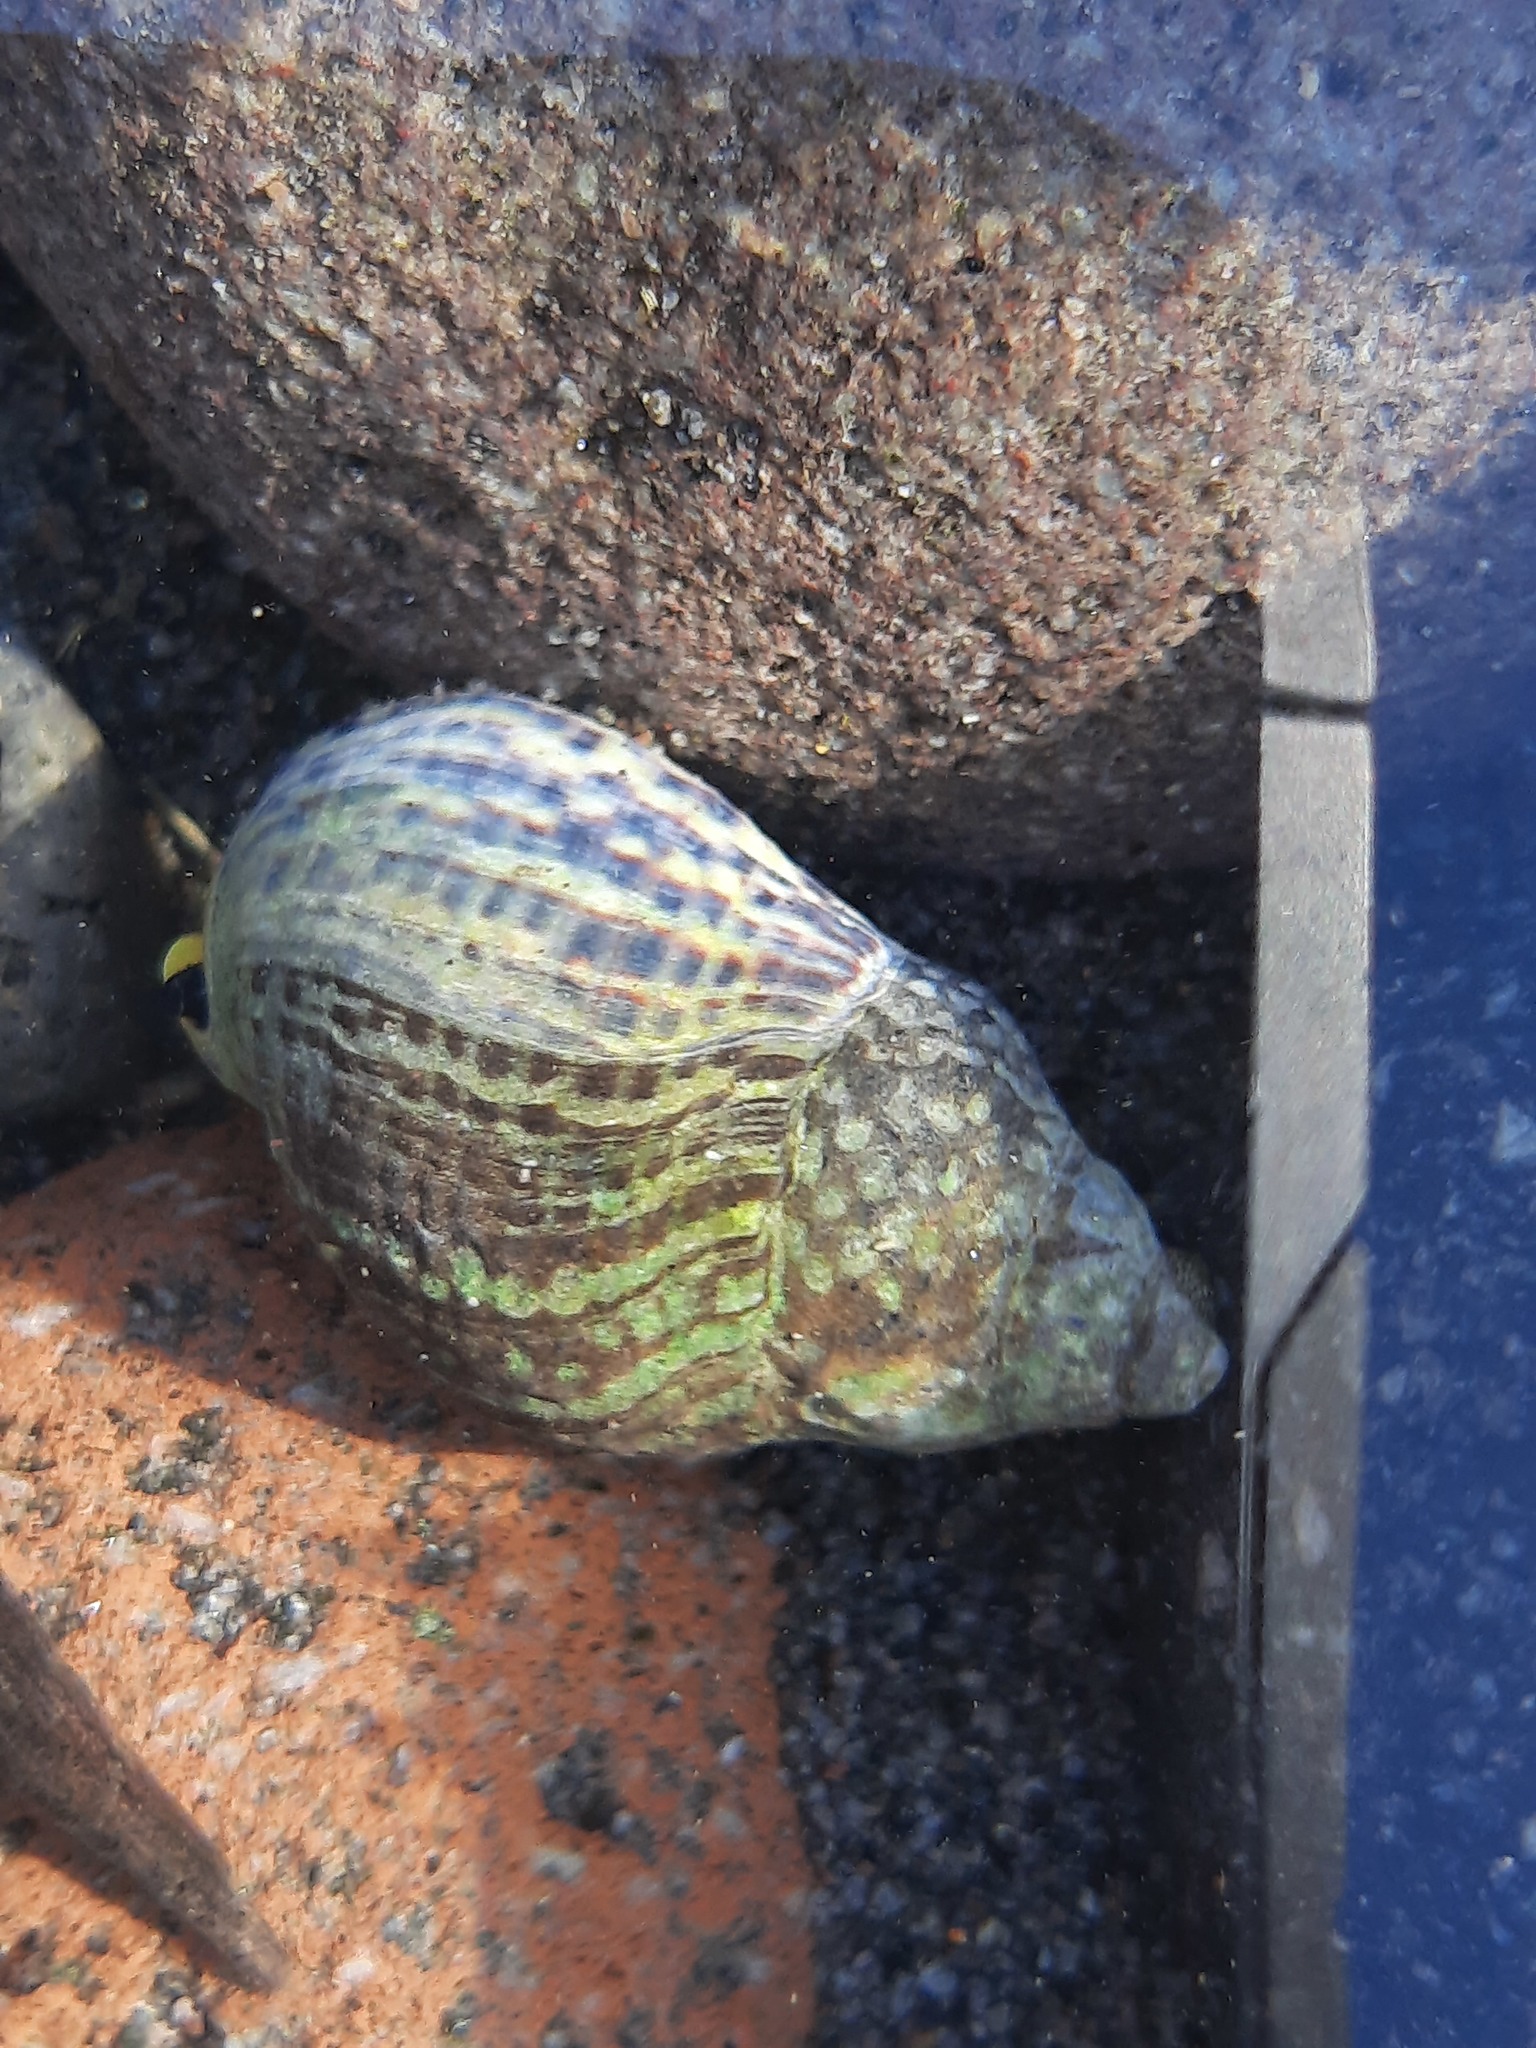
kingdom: Animalia
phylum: Mollusca
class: Gastropoda
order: Neogastropoda
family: Cominellidae
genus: Cominella
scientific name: Cominella maculosa
